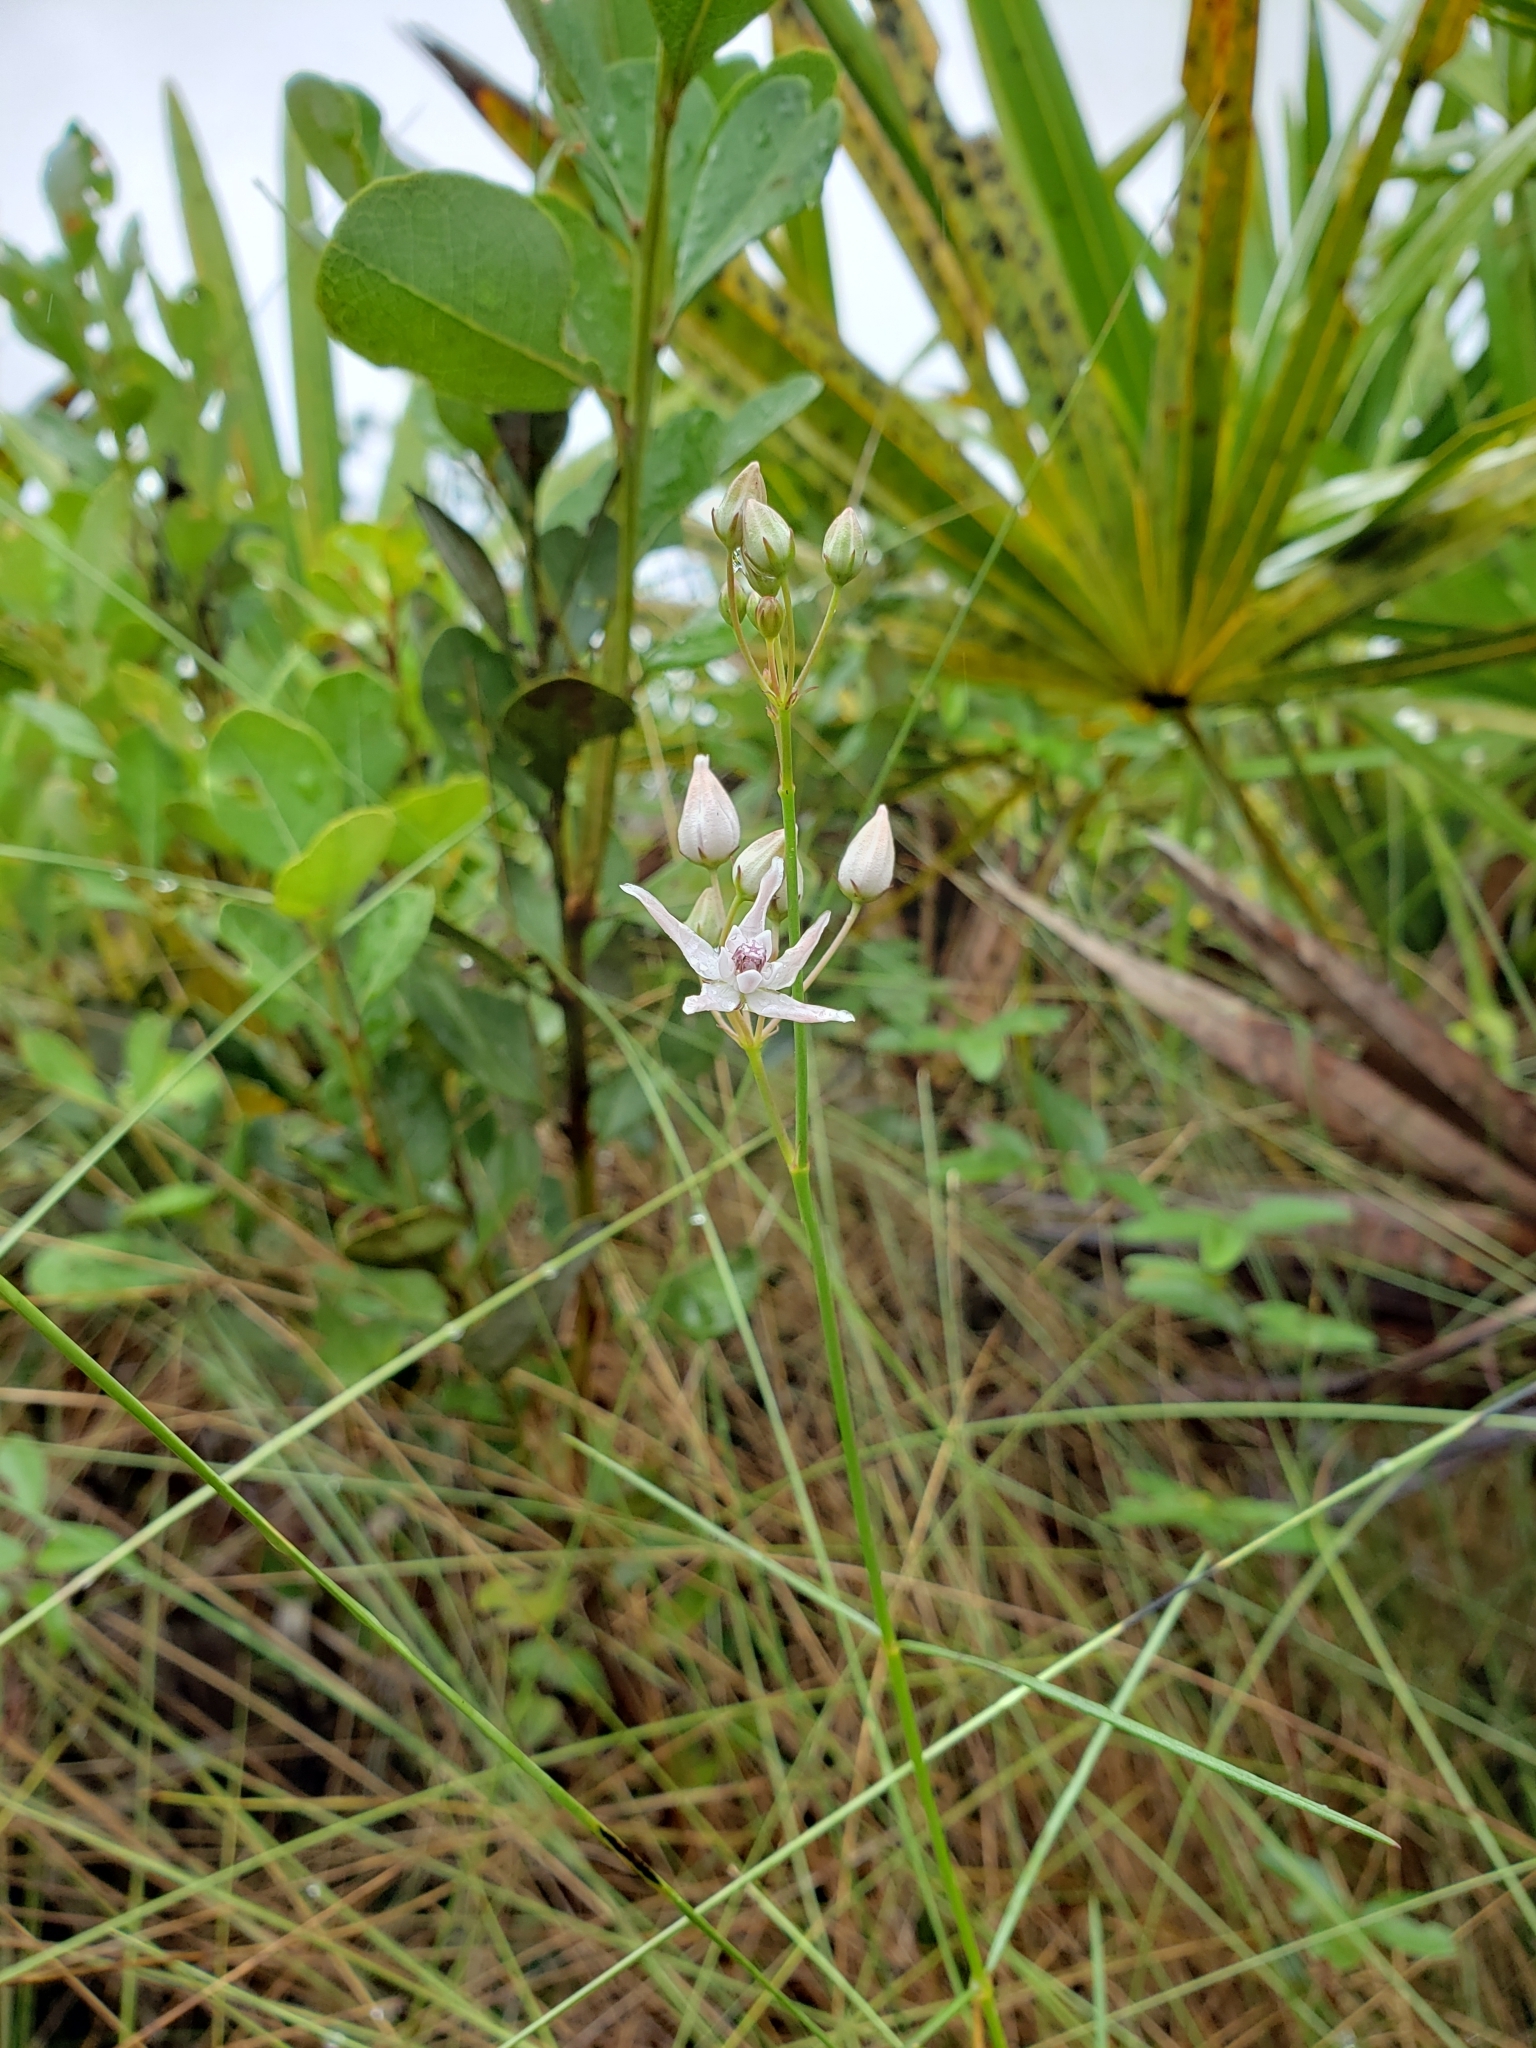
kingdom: Plantae
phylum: Tracheophyta
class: Magnoliopsida
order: Gentianales
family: Apocynaceae
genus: Asclepias
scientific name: Asclepias feayi
